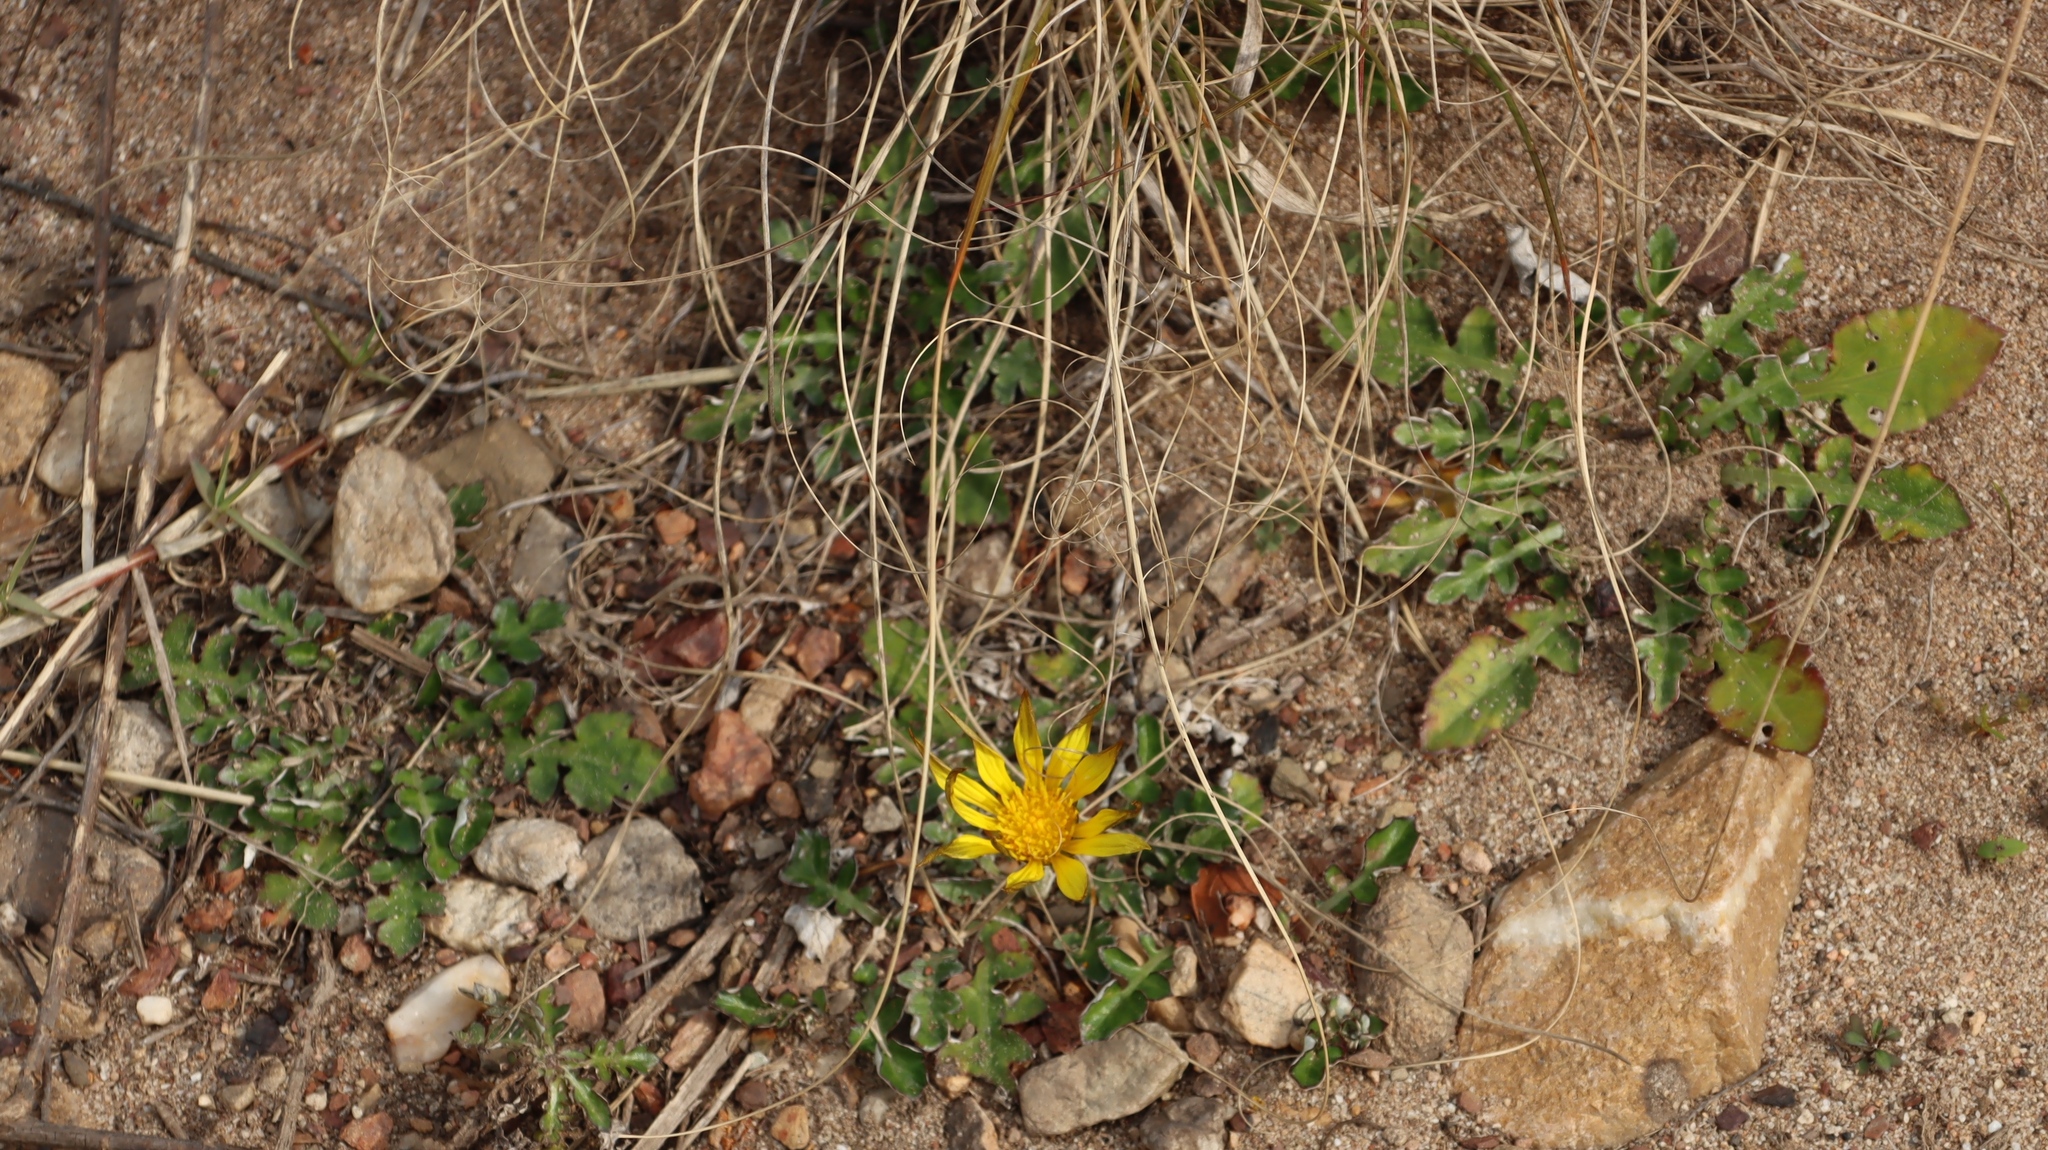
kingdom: Plantae
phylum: Tracheophyta
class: Magnoliopsida
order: Asterales
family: Asteraceae
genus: Arctotheca
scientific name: Arctotheca prostrata
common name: Capeweed
